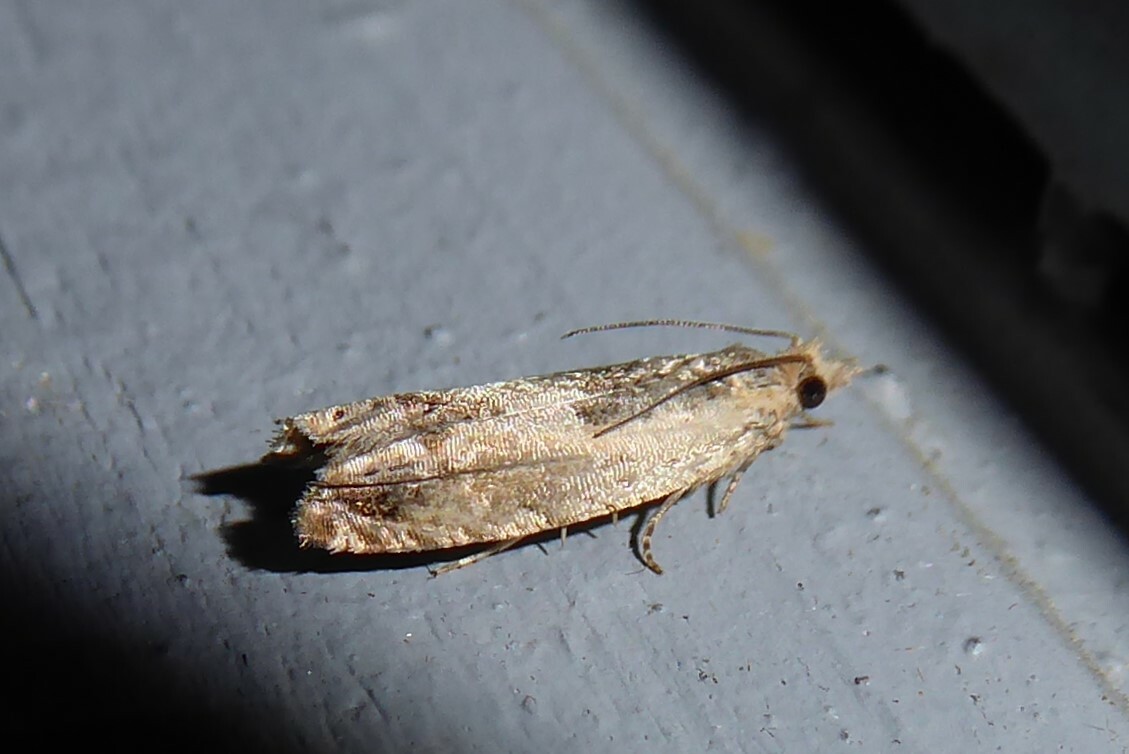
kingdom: Animalia
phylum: Arthropoda
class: Insecta
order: Lepidoptera
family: Tortricidae
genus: Crocidosema
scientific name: Crocidosema plebejana
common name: Southern bell
